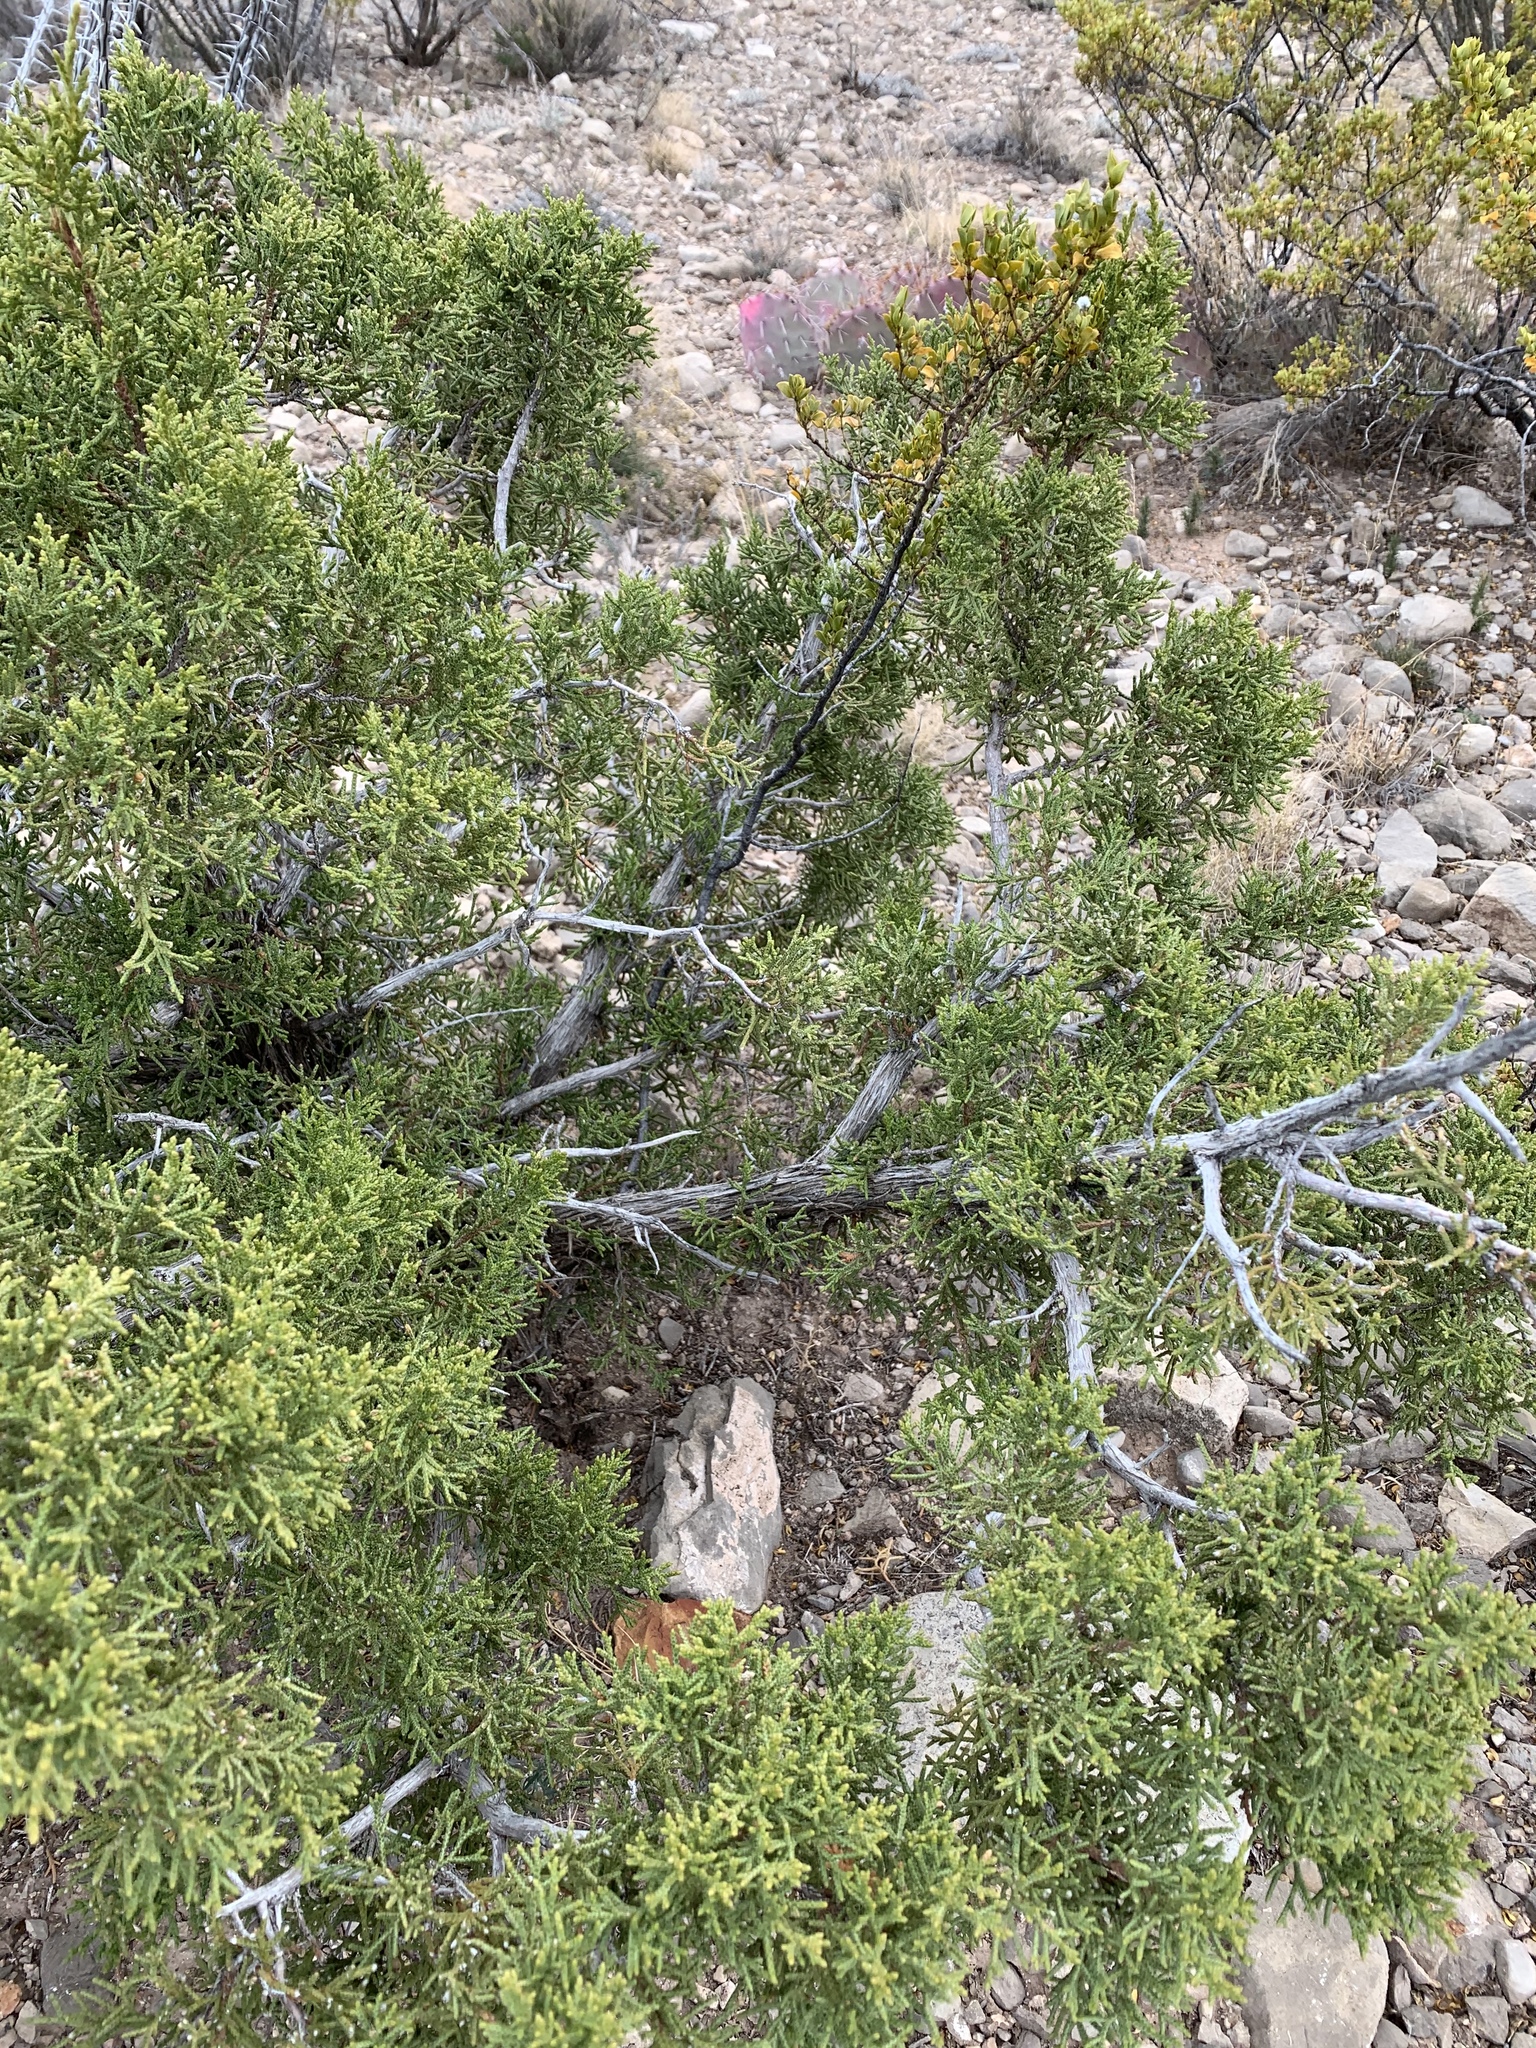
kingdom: Plantae
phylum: Tracheophyta
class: Pinopsida
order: Pinales
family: Cupressaceae
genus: Juniperus
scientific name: Juniperus monosperma
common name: One-seed juniper
